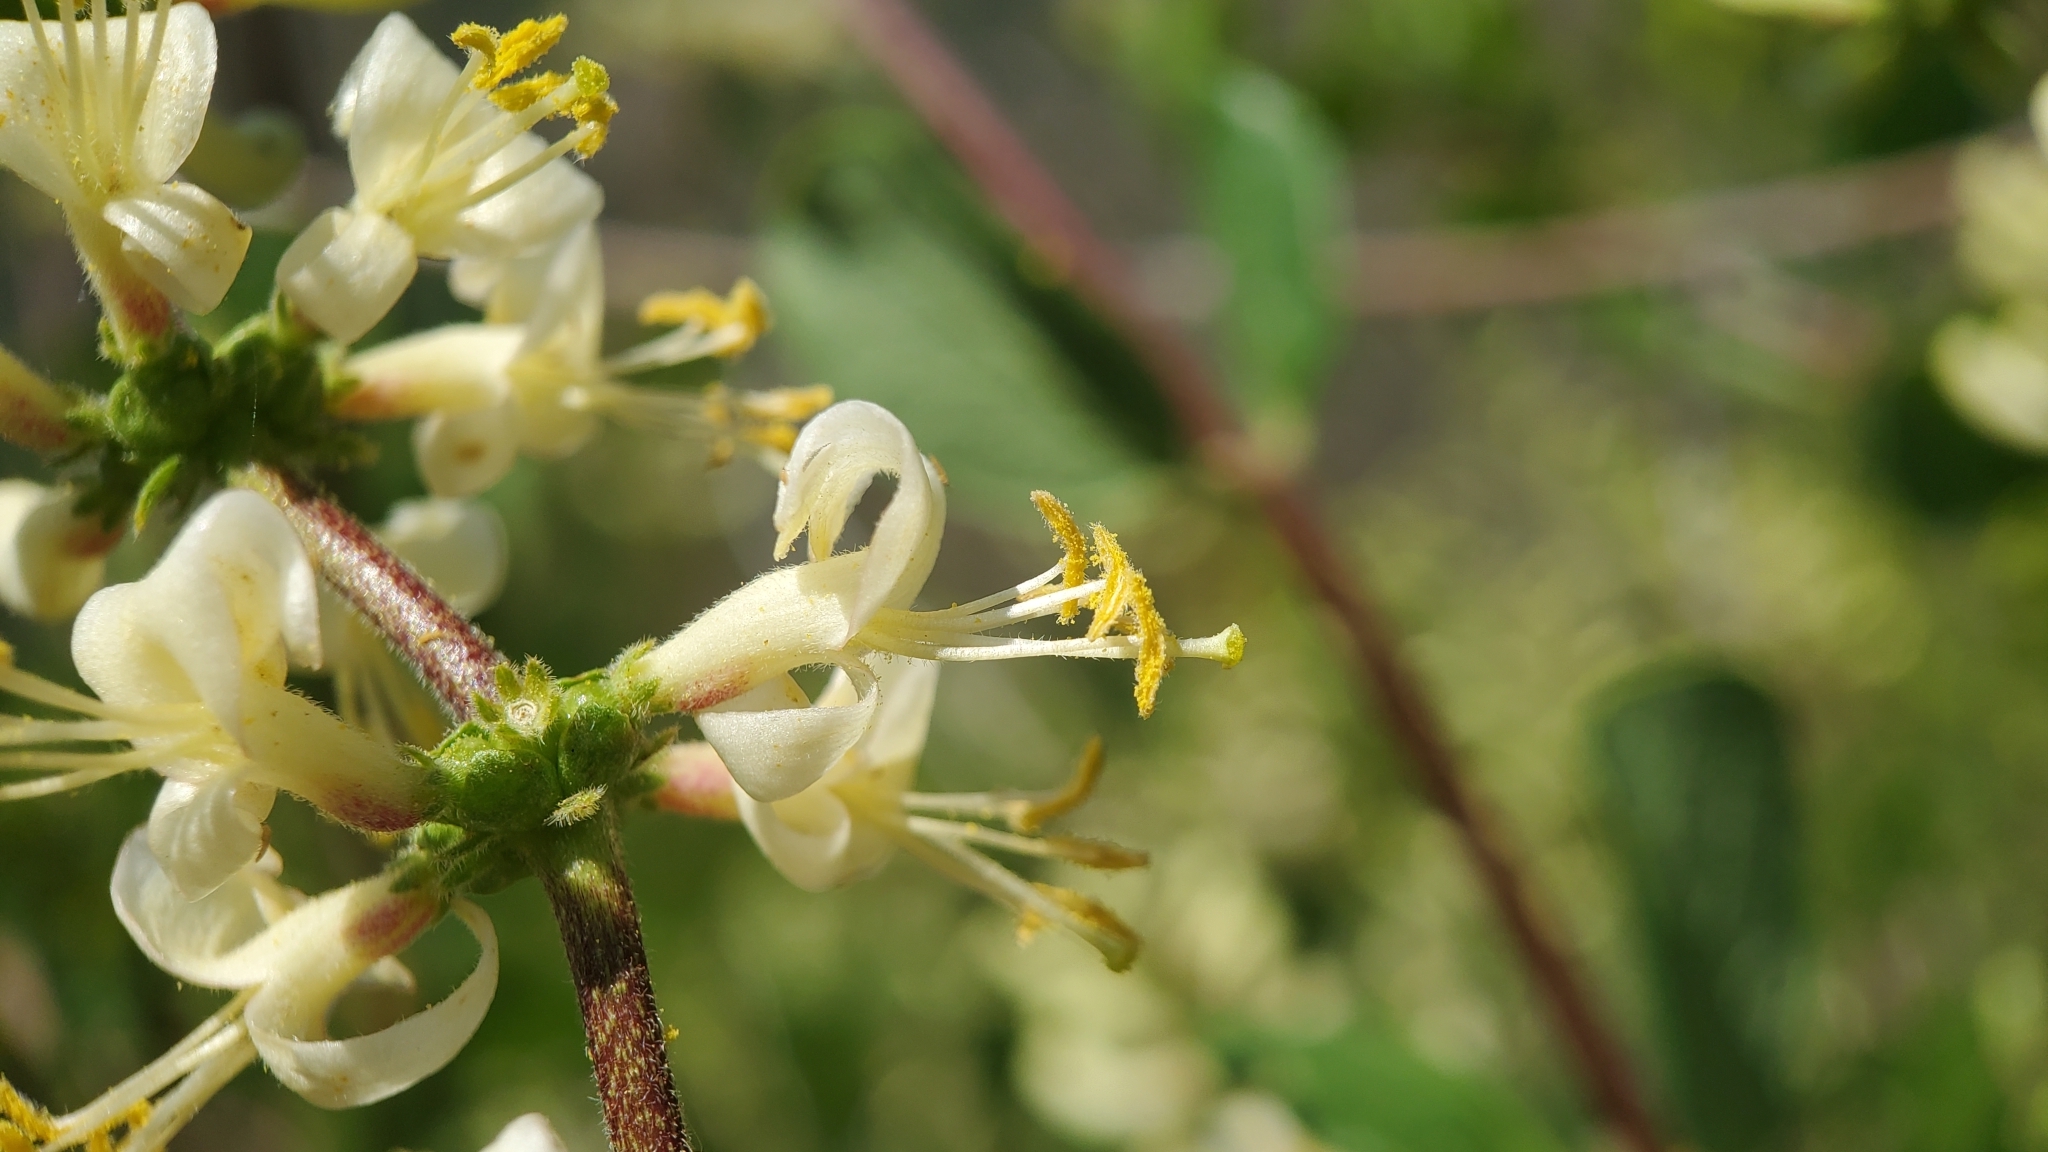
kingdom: Plantae
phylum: Tracheophyta
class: Magnoliopsida
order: Dipsacales
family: Caprifoliaceae
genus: Lonicera
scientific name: Lonicera subspicata
